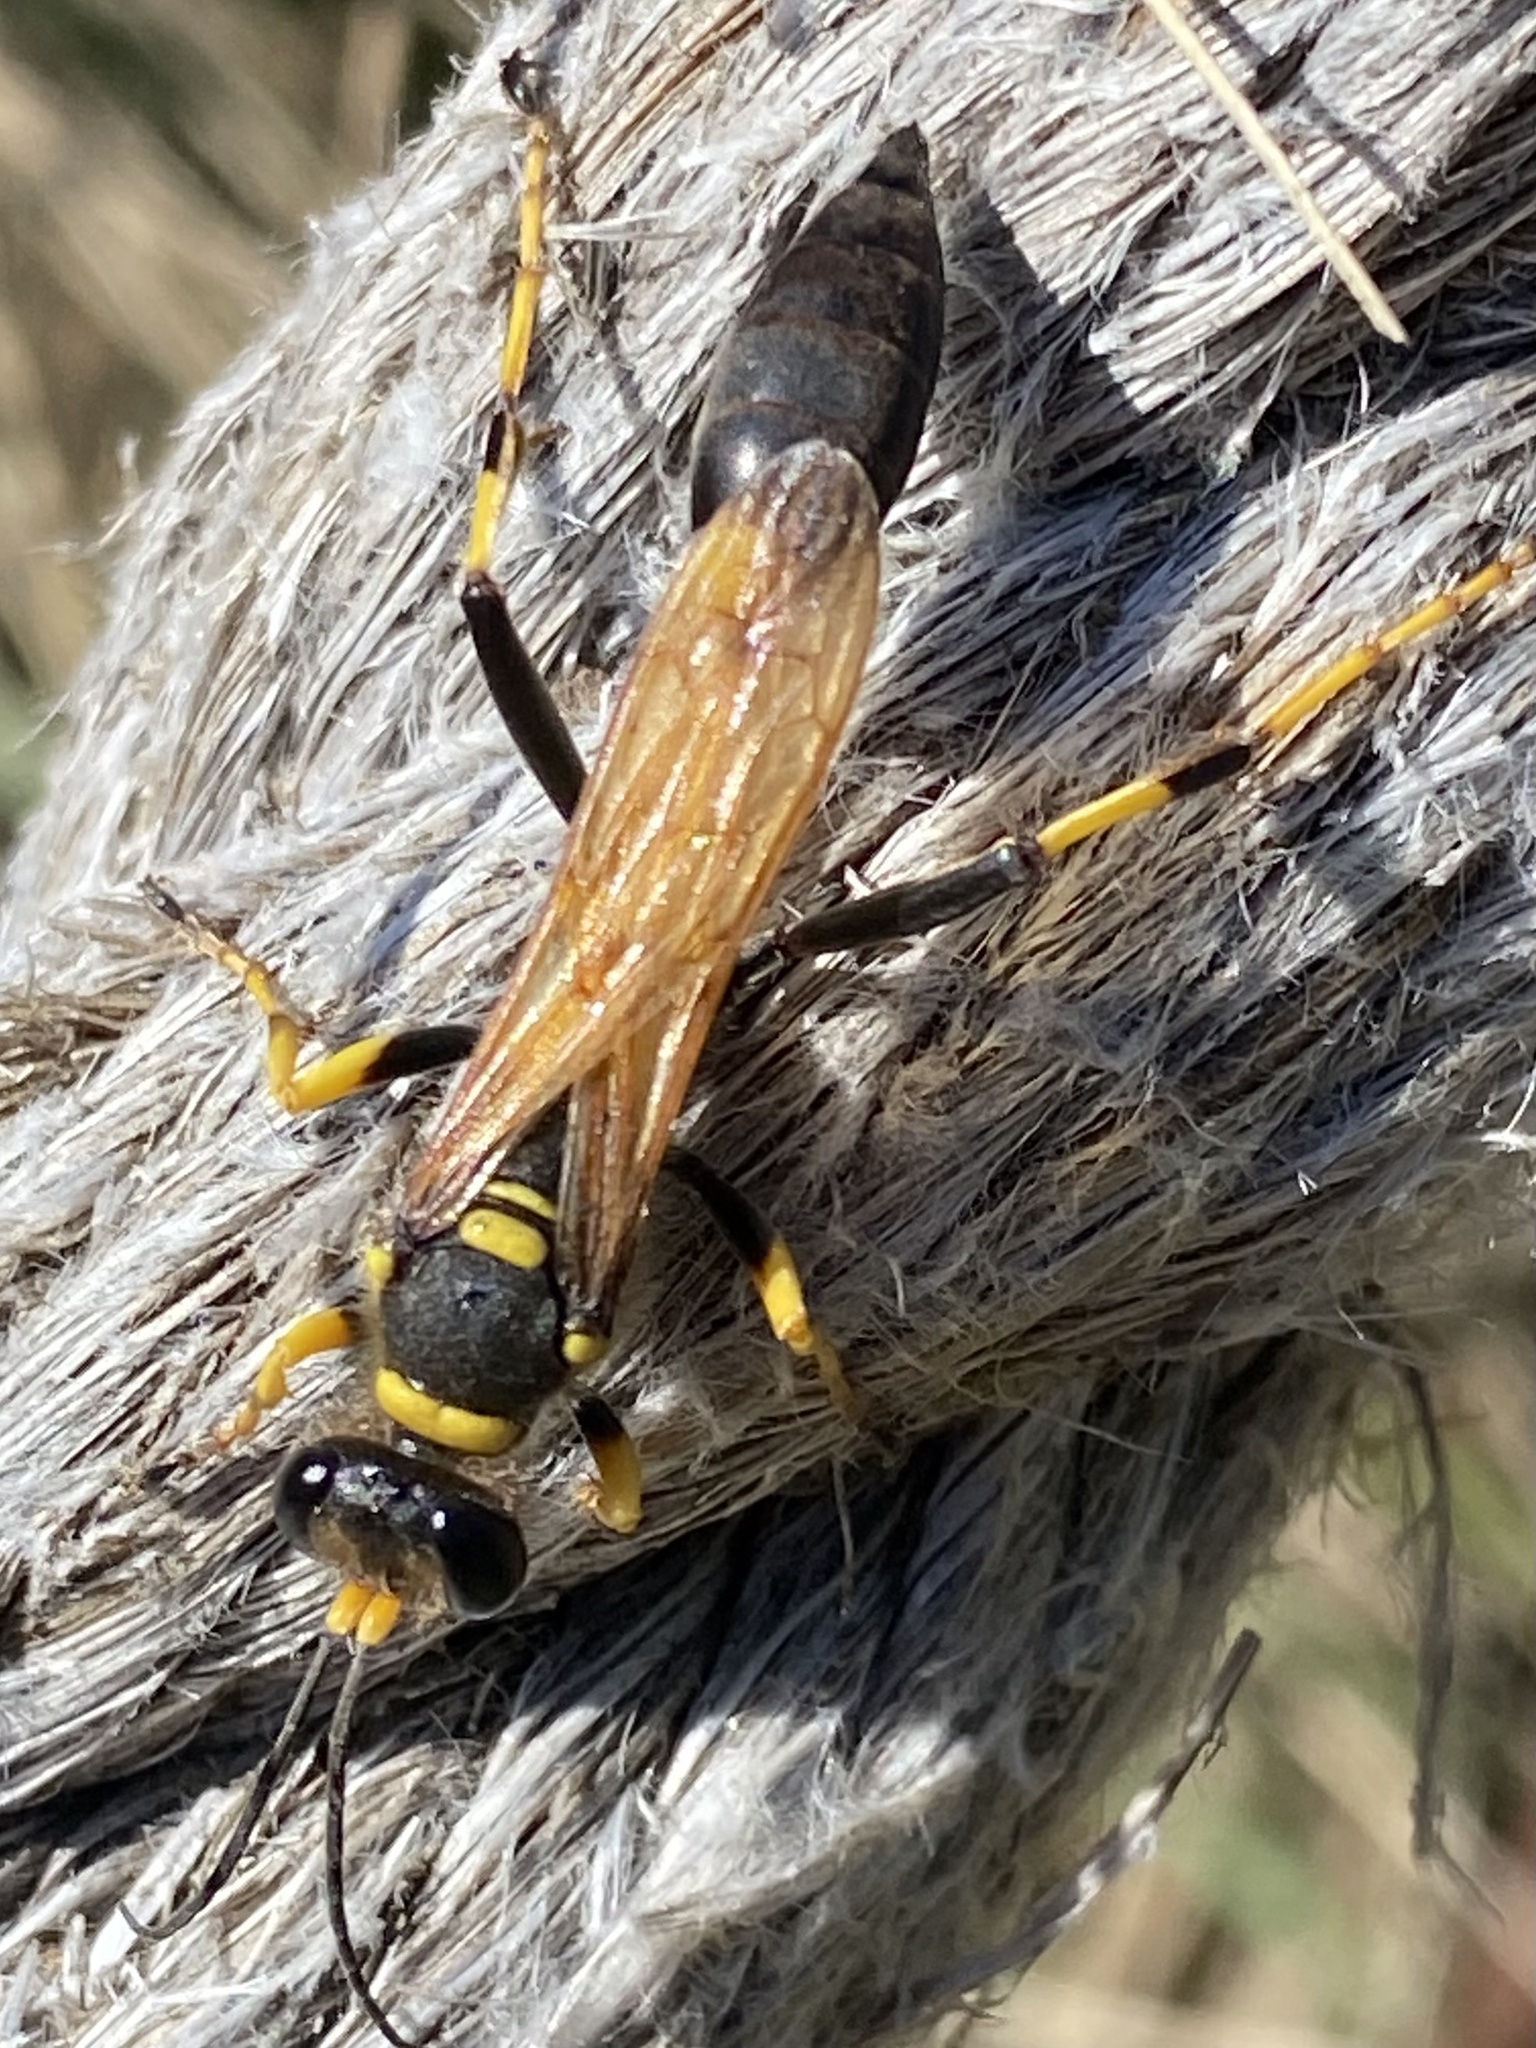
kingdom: Animalia
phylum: Arthropoda
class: Insecta
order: Hymenoptera
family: Sphecidae
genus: Sceliphron
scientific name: Sceliphron caementarium
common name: Mud dauber
